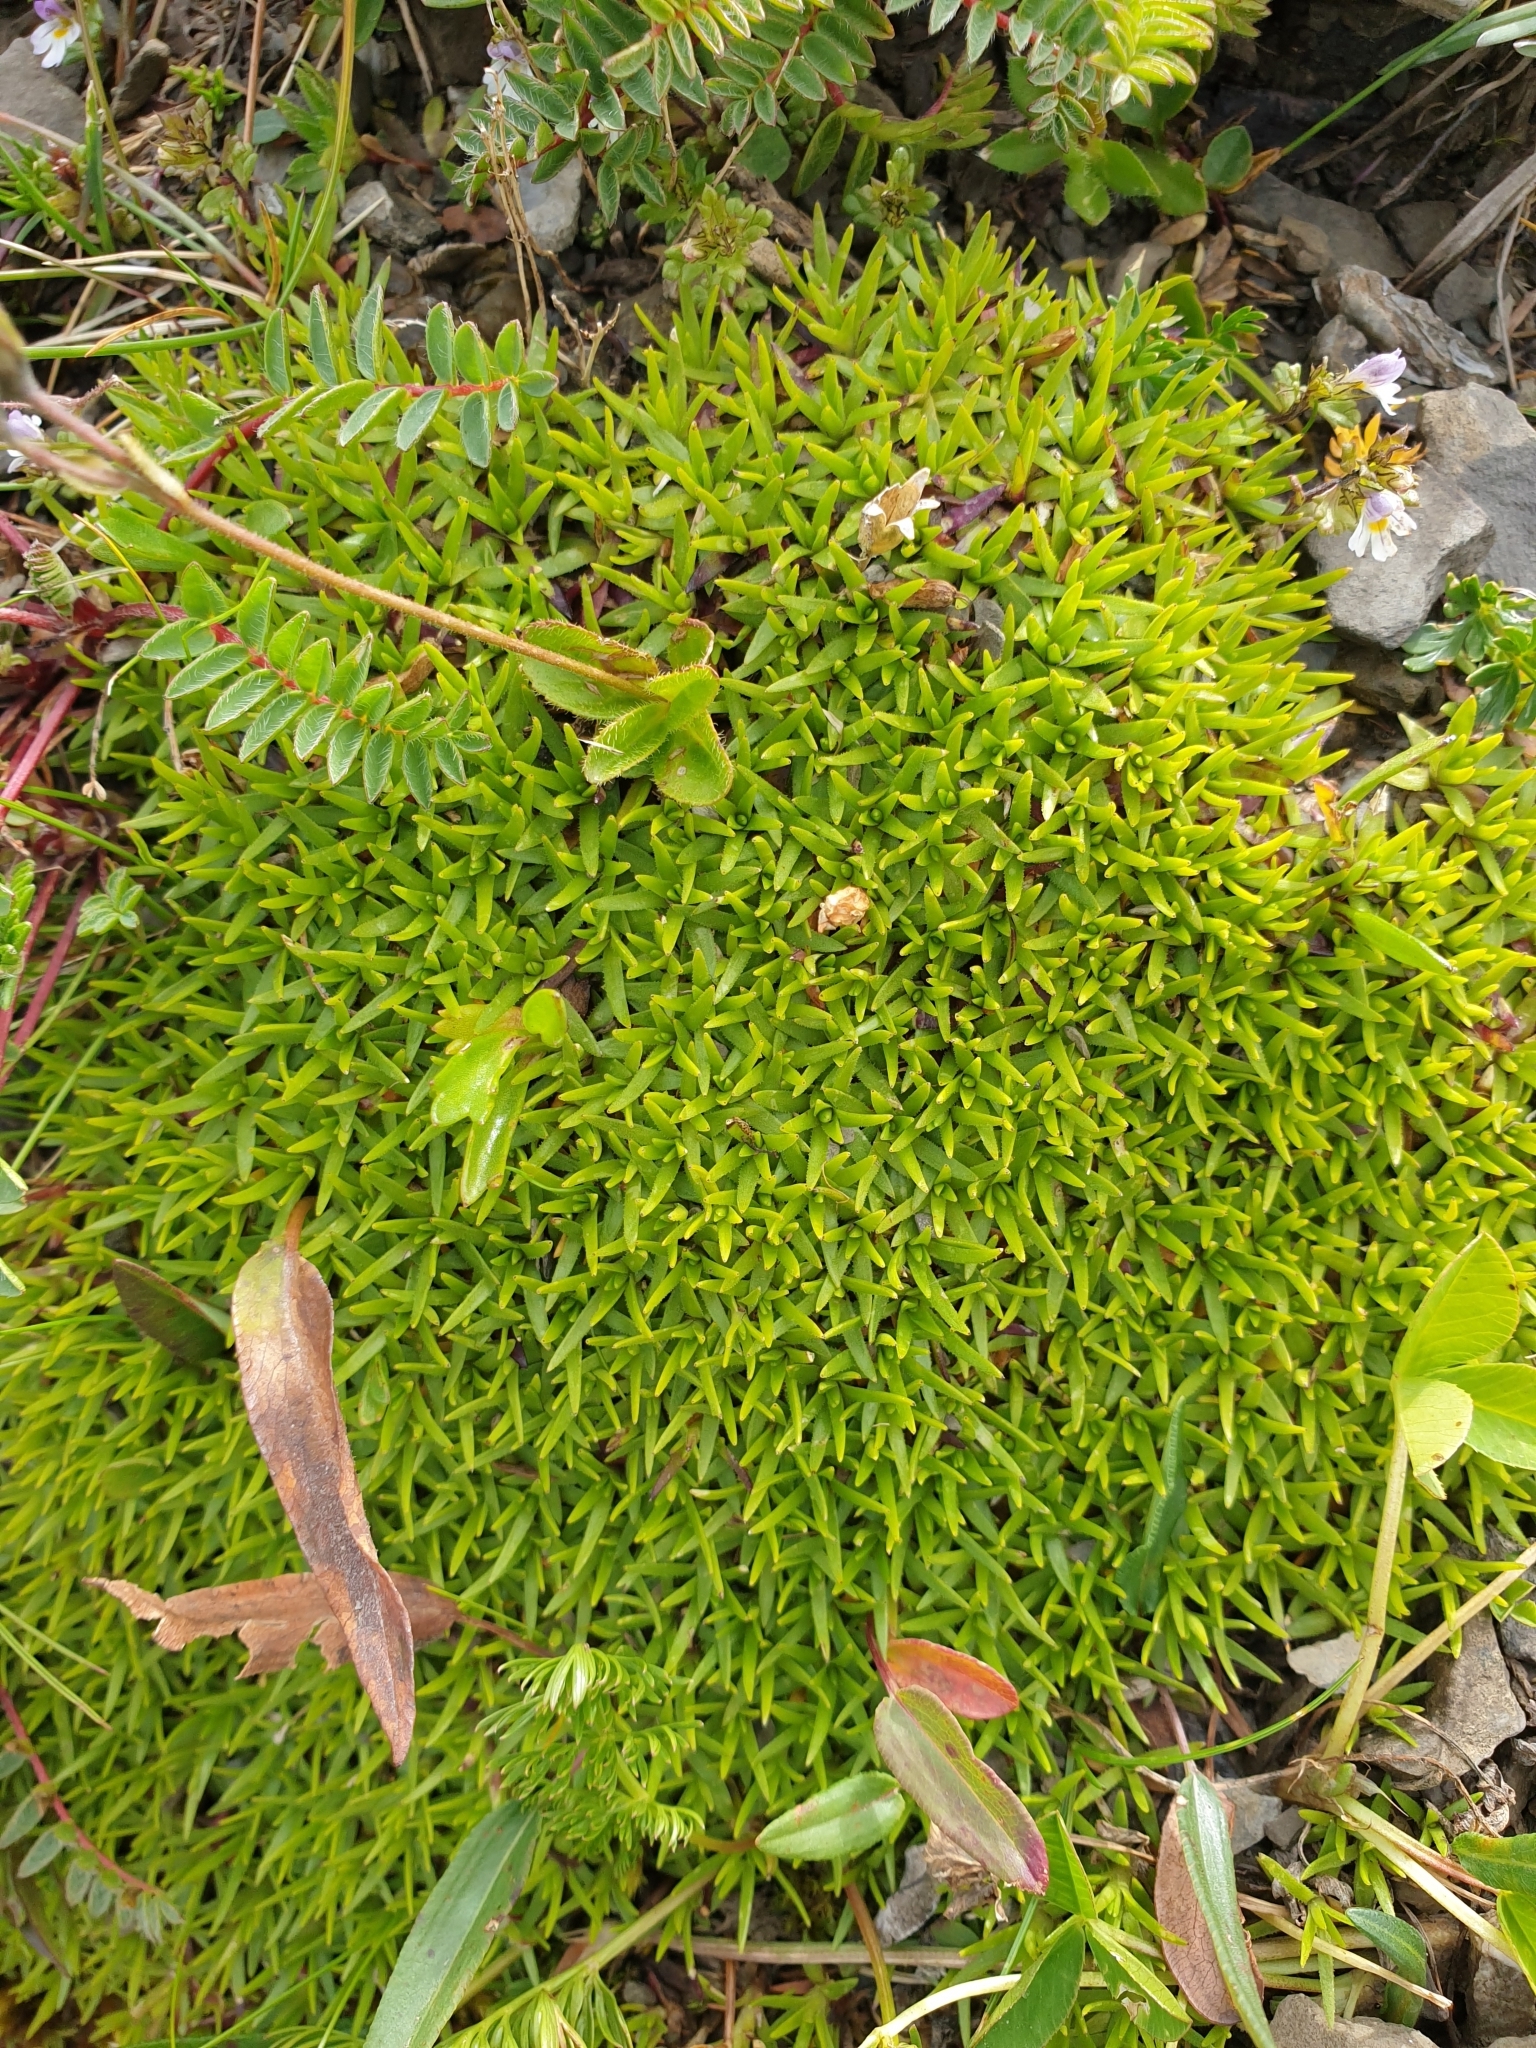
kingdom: Plantae
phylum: Tracheophyta
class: Magnoliopsida
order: Caryophyllales
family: Caryophyllaceae
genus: Silene
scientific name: Silene acaulis
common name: Moss campion
